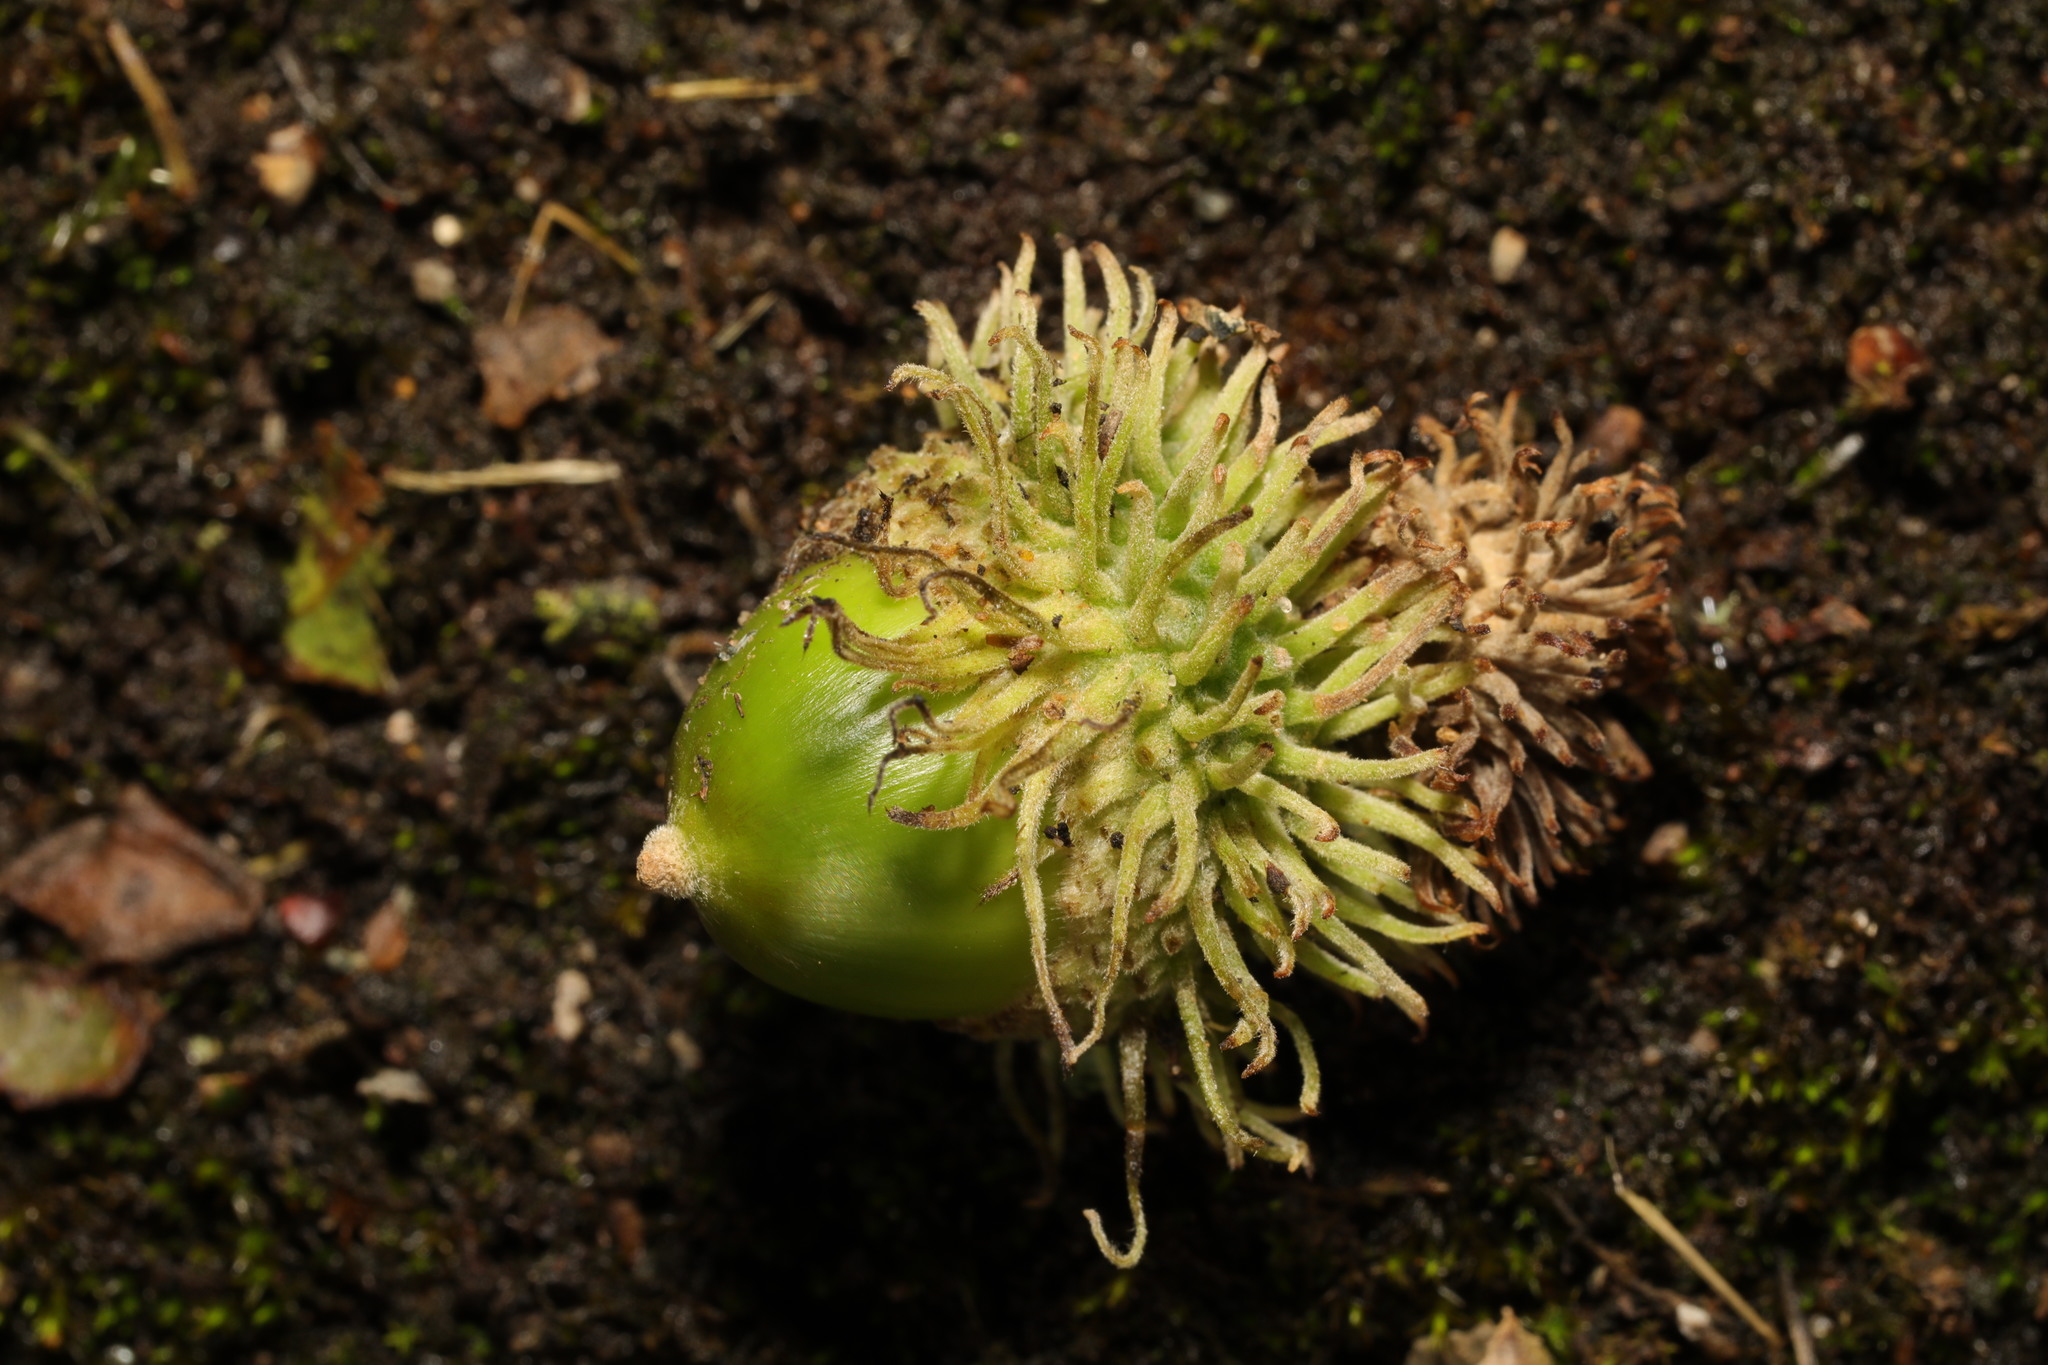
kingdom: Plantae
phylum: Tracheophyta
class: Magnoliopsida
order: Fagales
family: Fagaceae
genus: Quercus
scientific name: Quercus cerris
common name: Turkey oak
